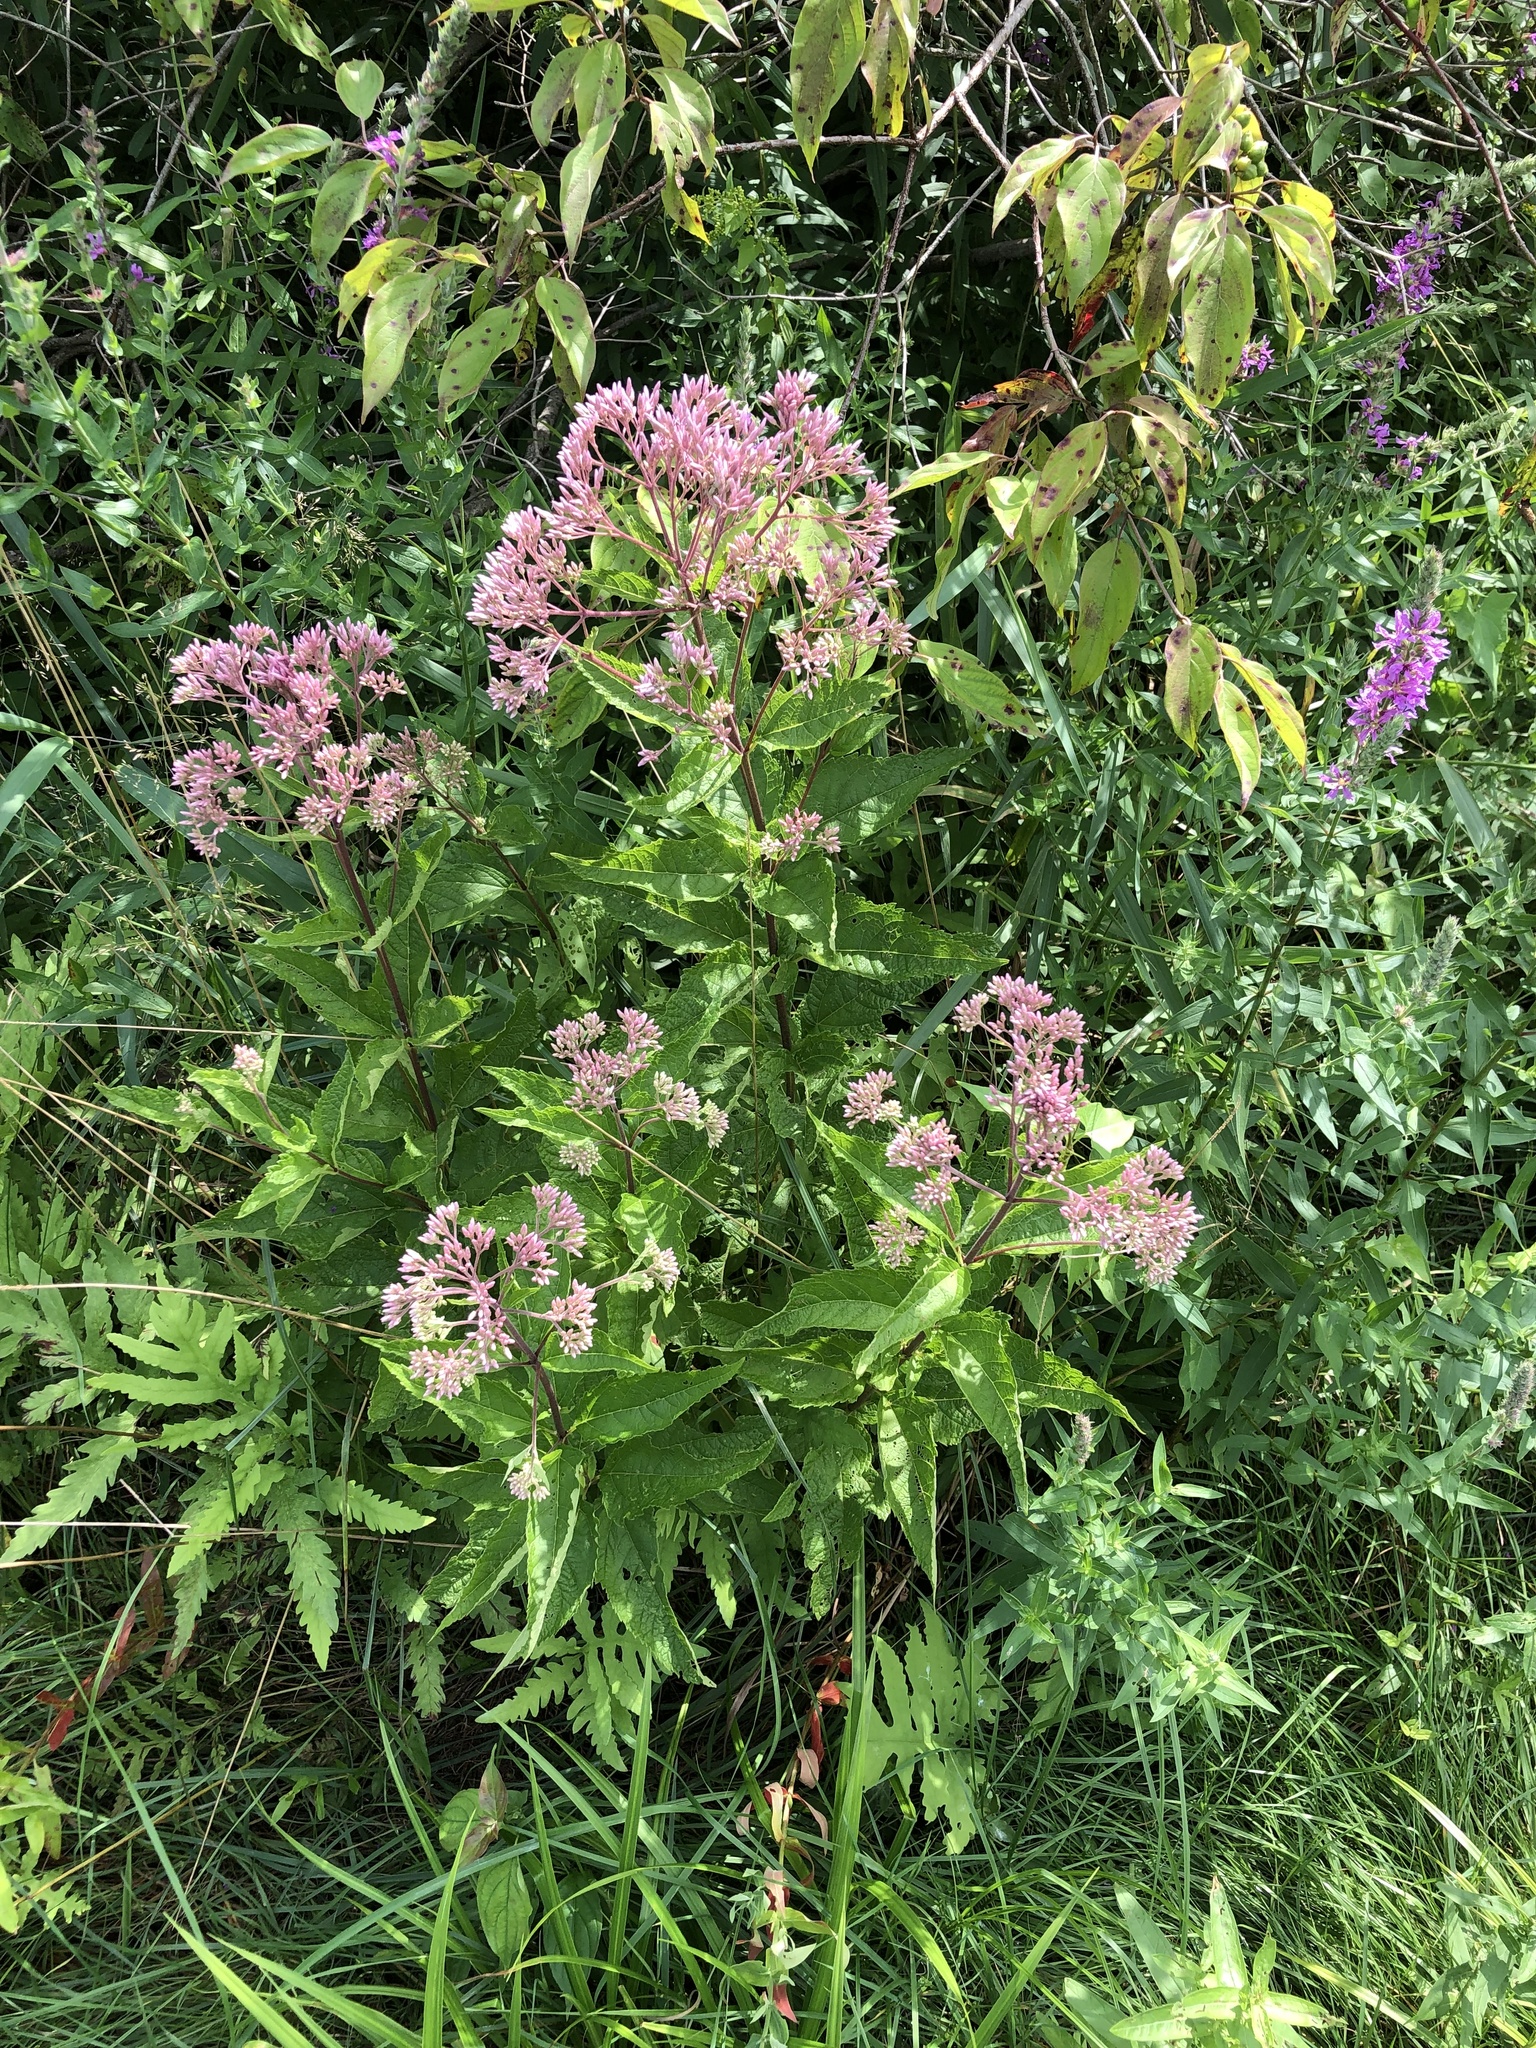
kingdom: Plantae
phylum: Tracheophyta
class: Magnoliopsida
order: Asterales
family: Asteraceae
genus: Eutrochium
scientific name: Eutrochium purpureum
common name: Gravelroot
